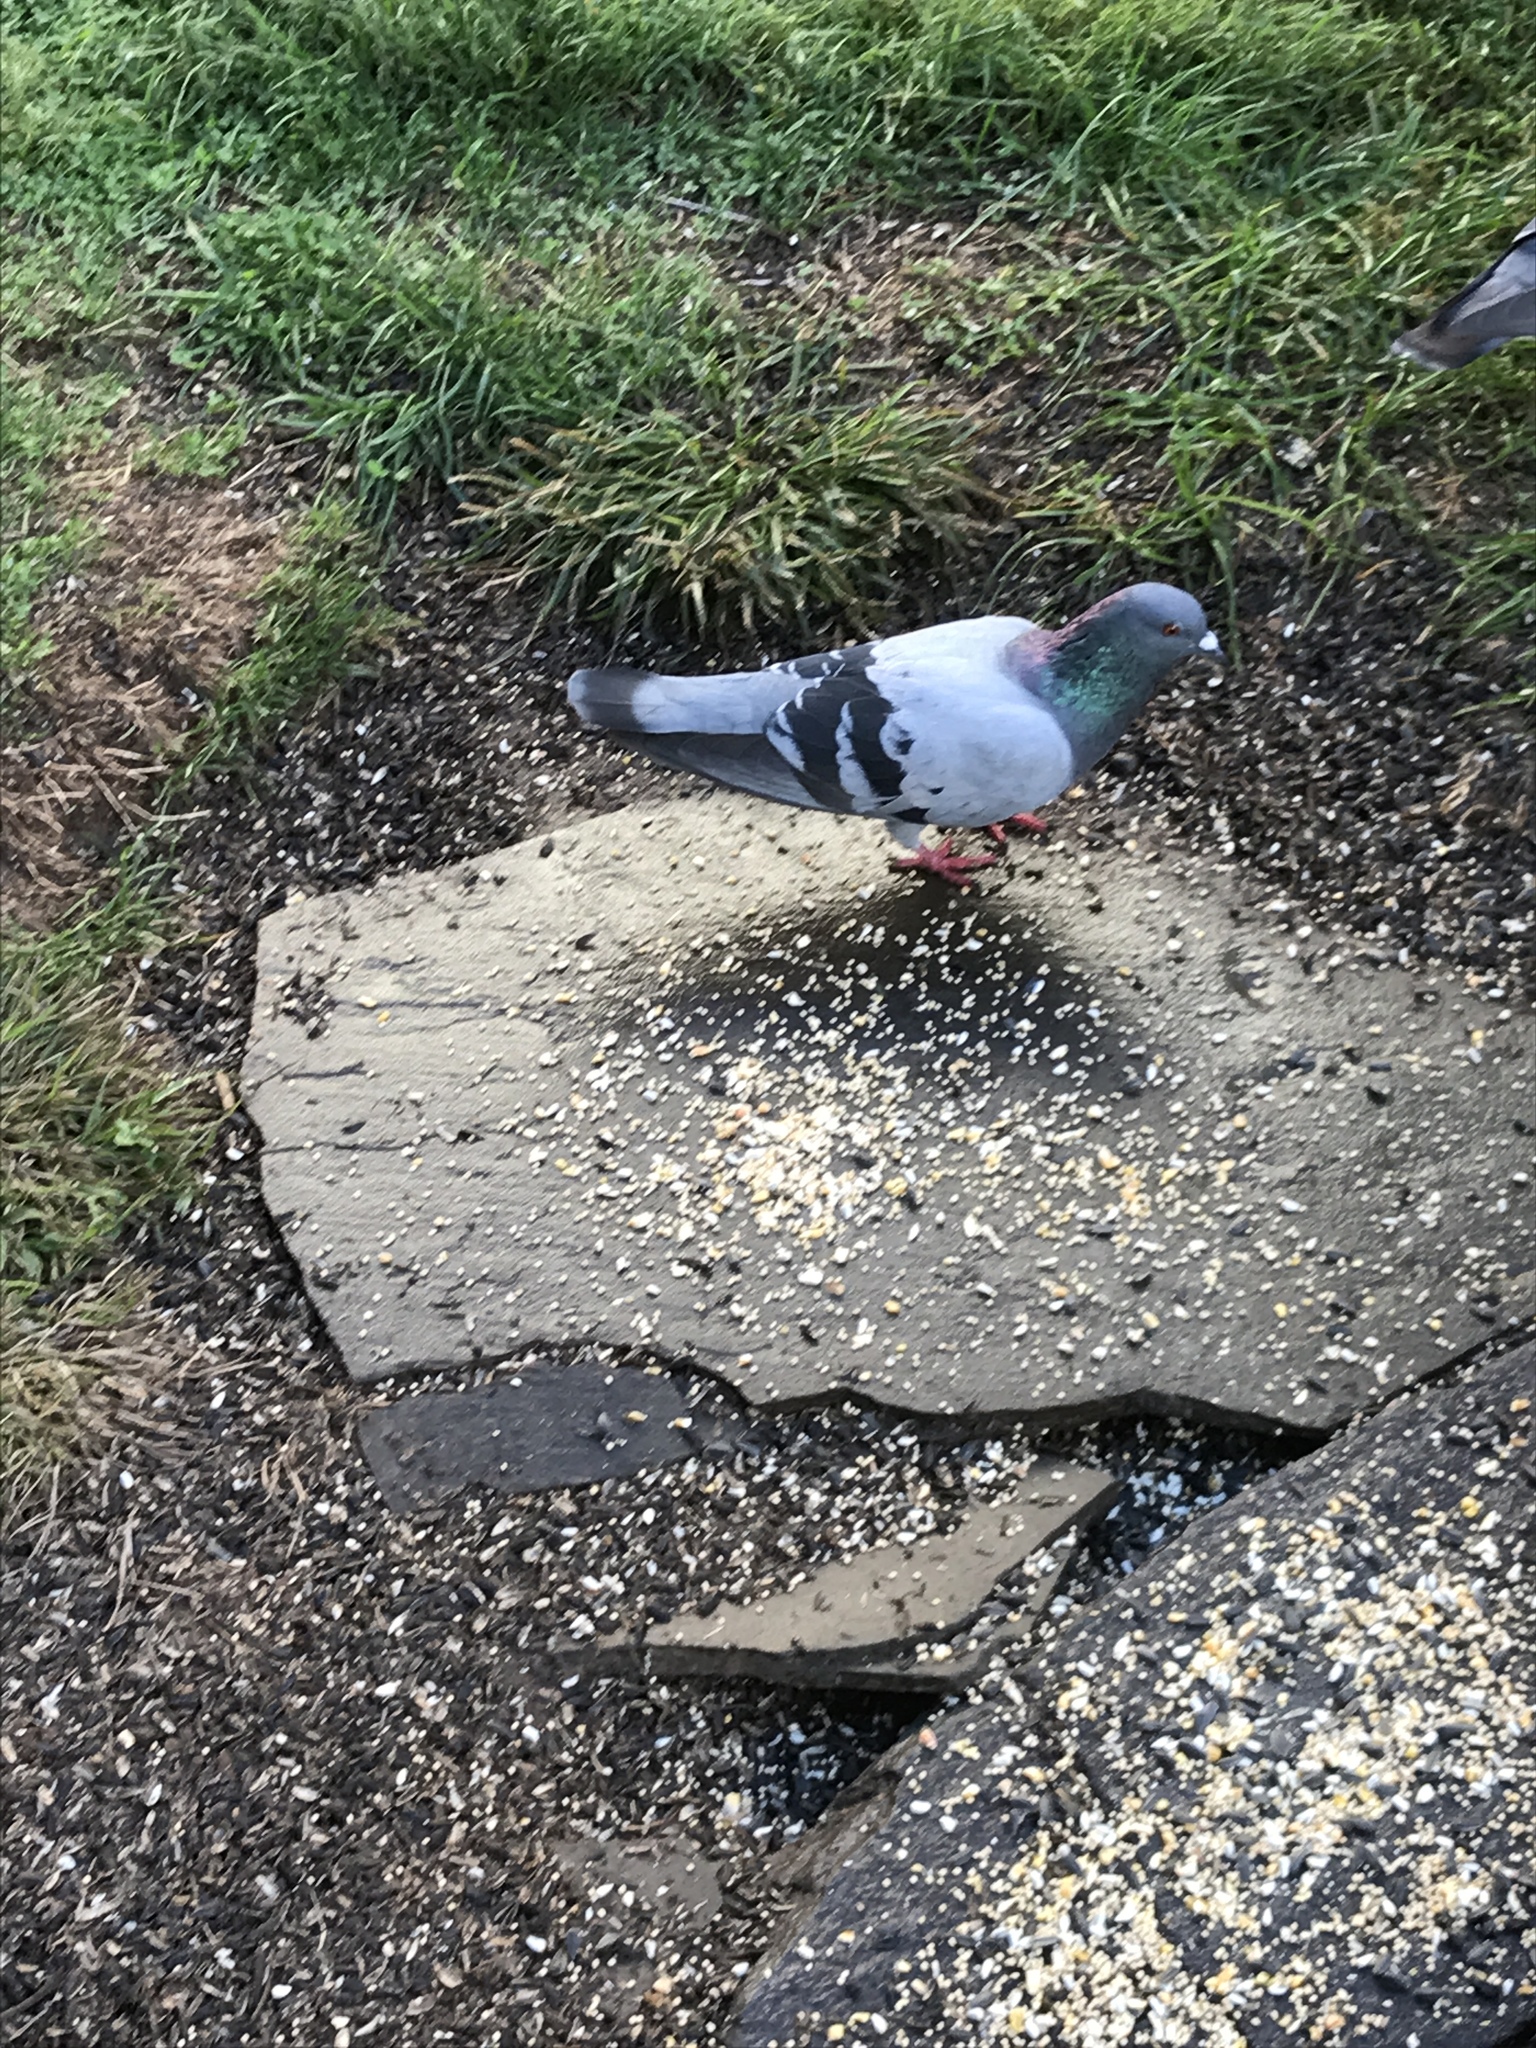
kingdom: Animalia
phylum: Chordata
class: Aves
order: Columbiformes
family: Columbidae
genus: Columba
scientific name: Columba livia
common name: Rock pigeon
